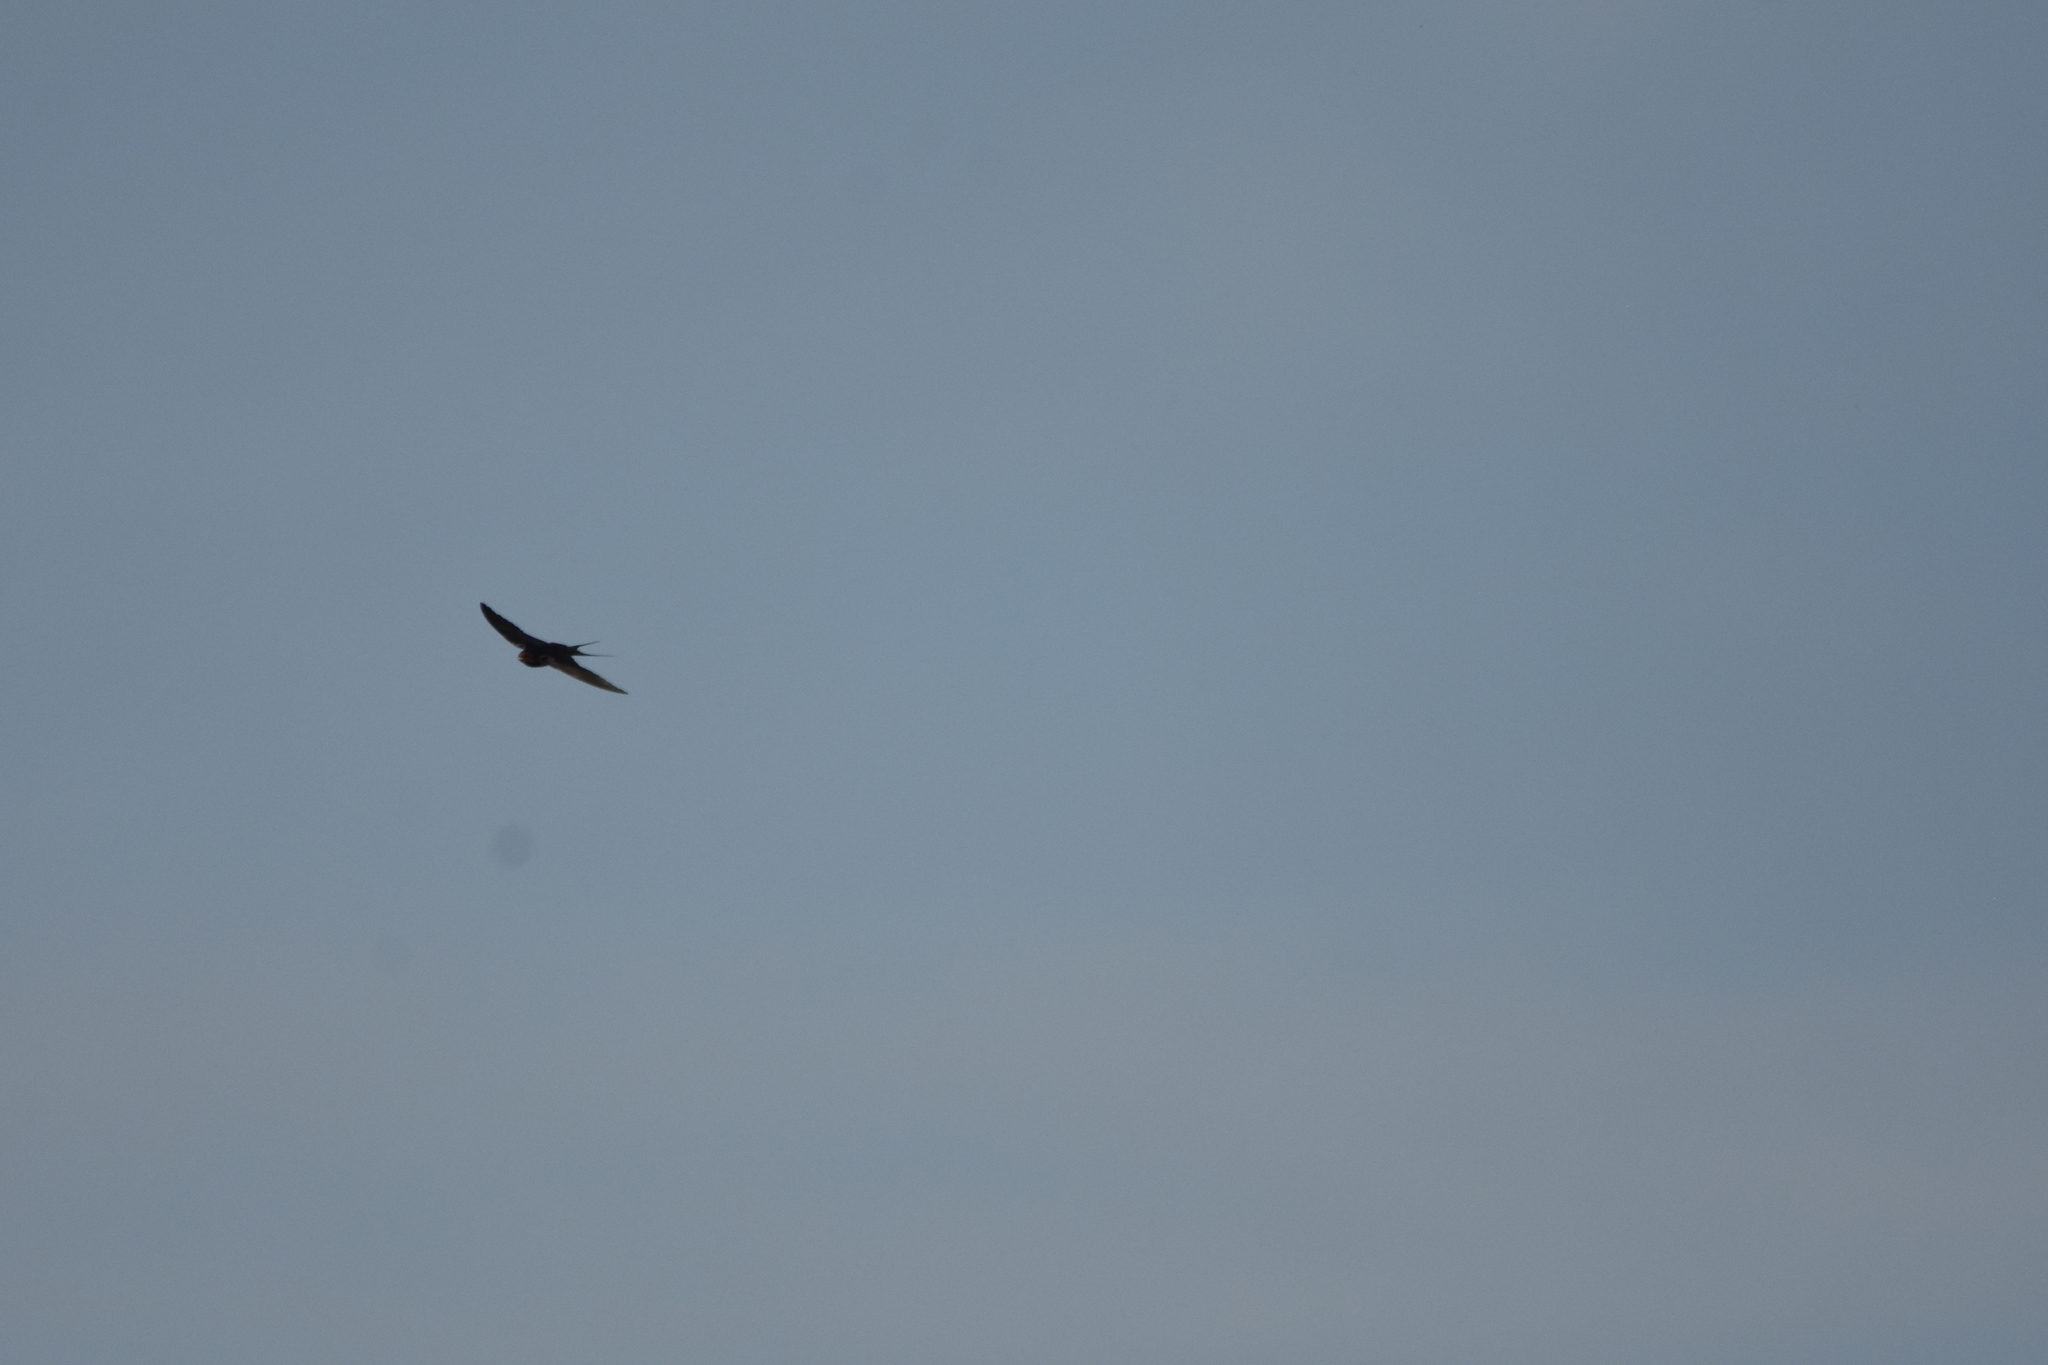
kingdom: Animalia
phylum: Chordata
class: Aves
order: Passeriformes
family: Hirundinidae
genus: Hirundo
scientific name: Hirundo rustica
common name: Barn swallow
